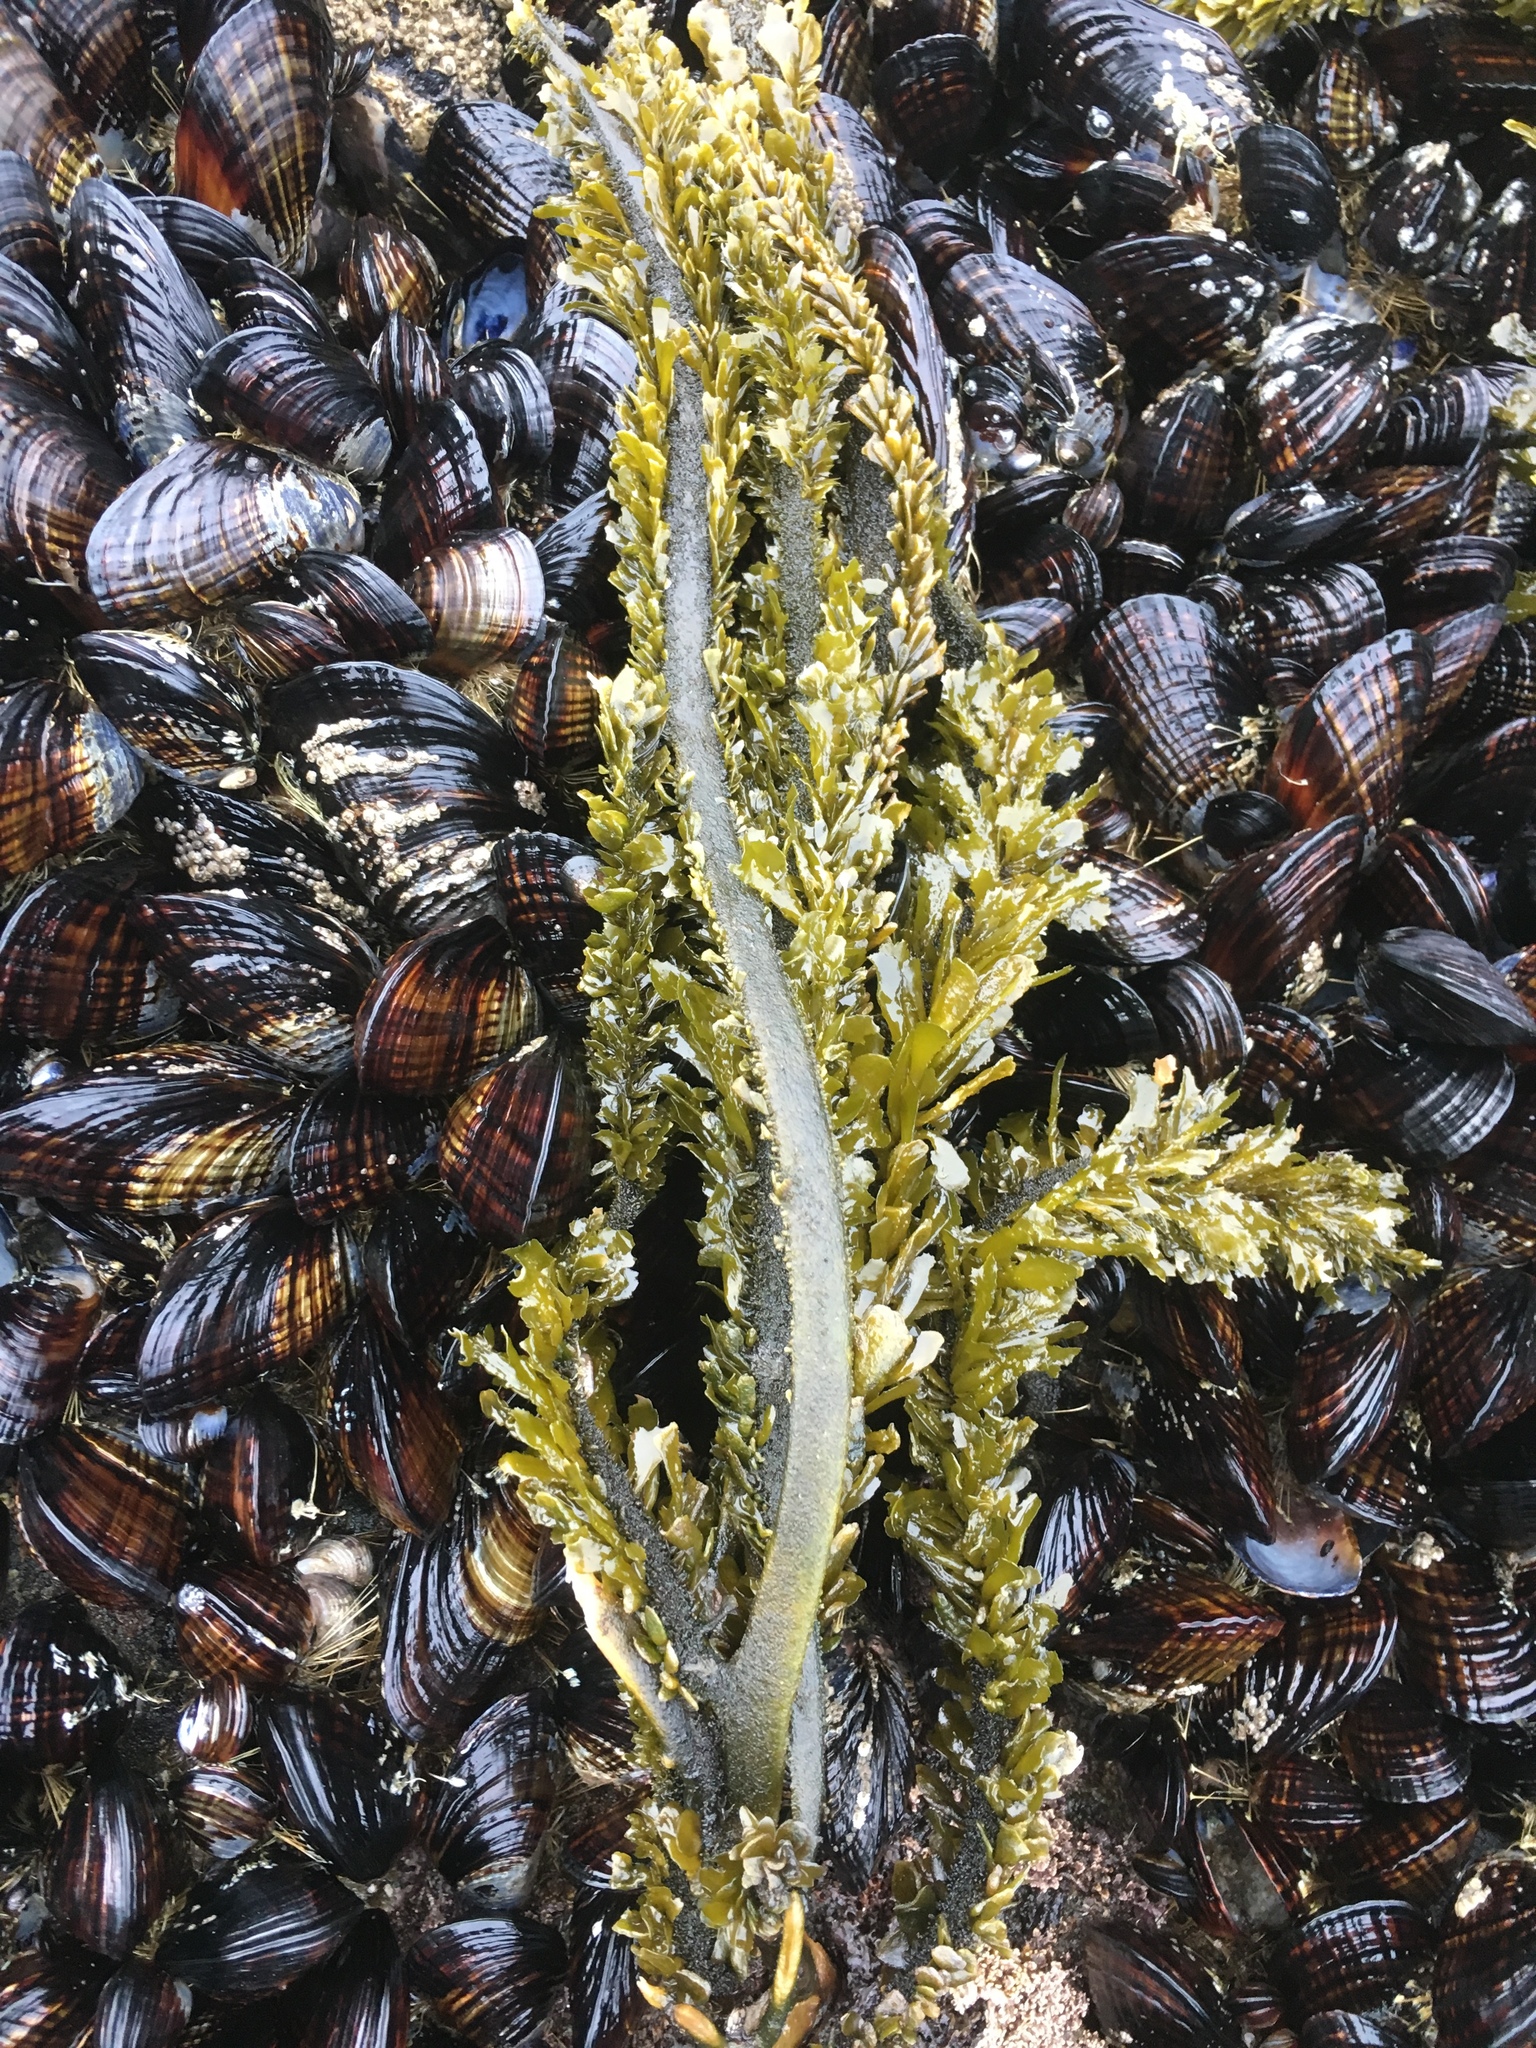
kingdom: Chromista
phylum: Ochrophyta
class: Phaeophyceae
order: Laminariales
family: Lessoniaceae
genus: Egregia
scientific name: Egregia menziesii
